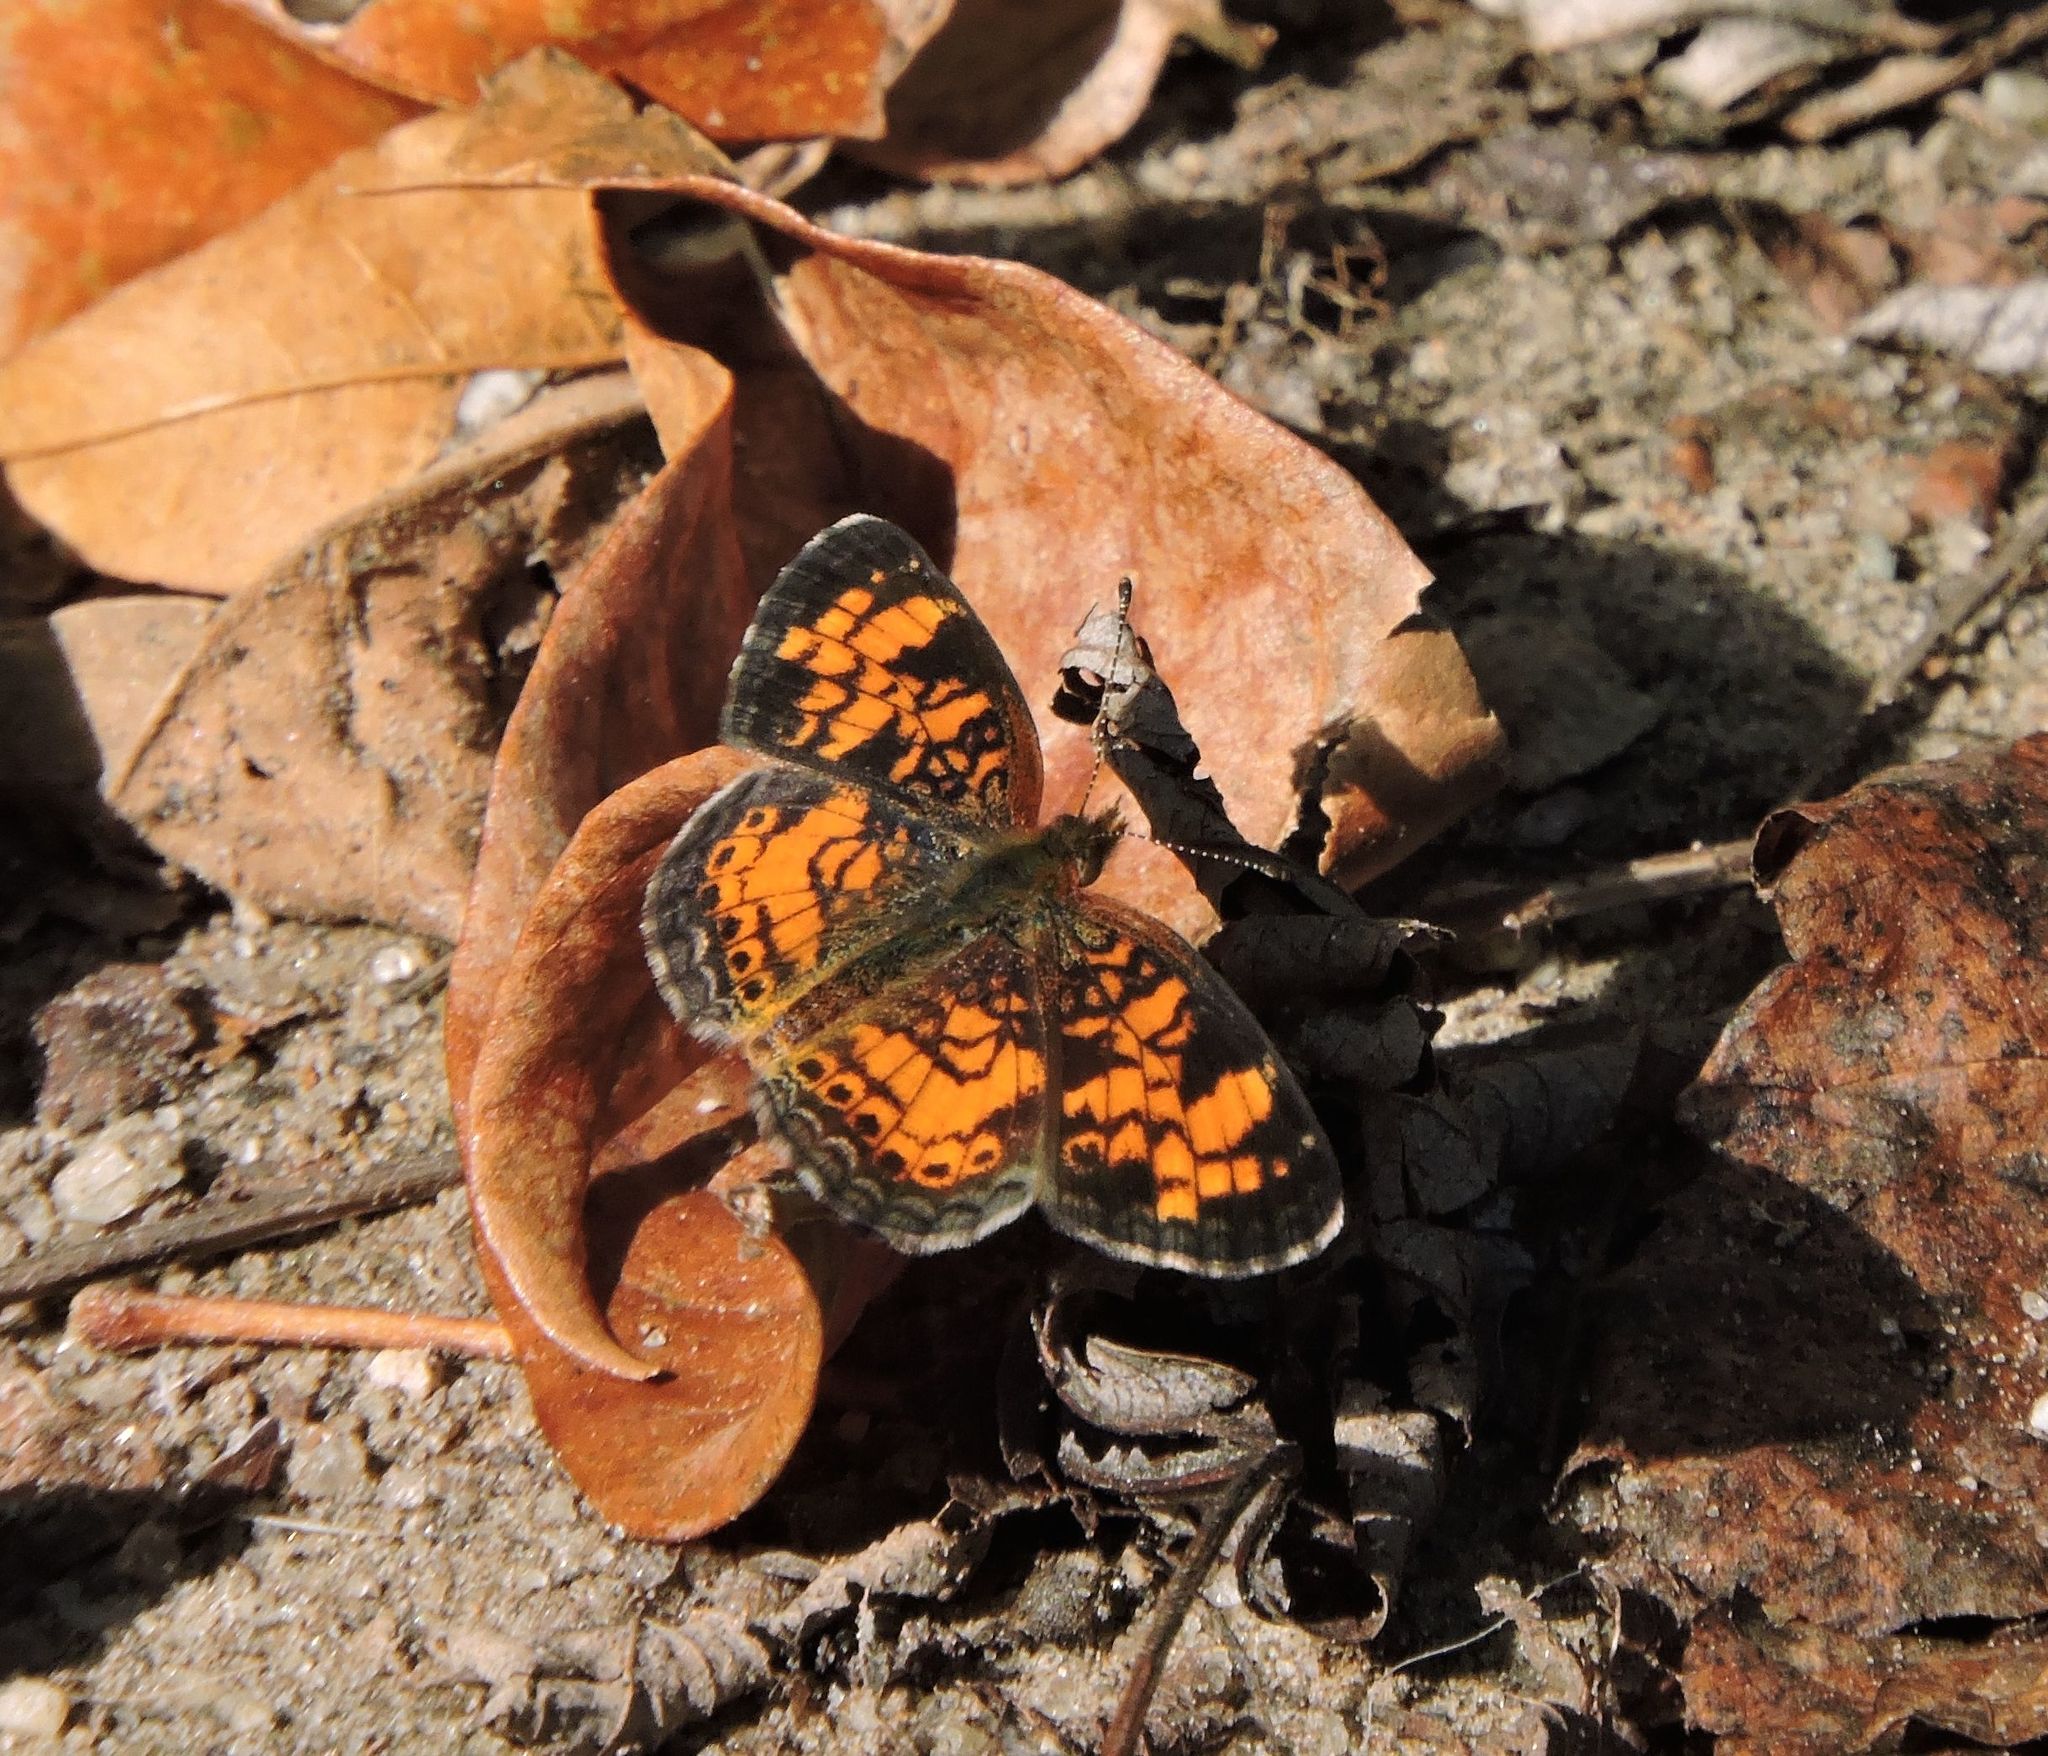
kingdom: Animalia
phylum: Arthropoda
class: Insecta
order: Lepidoptera
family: Nymphalidae
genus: Phyciodes
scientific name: Phyciodes tharos
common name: Pearl crescent
